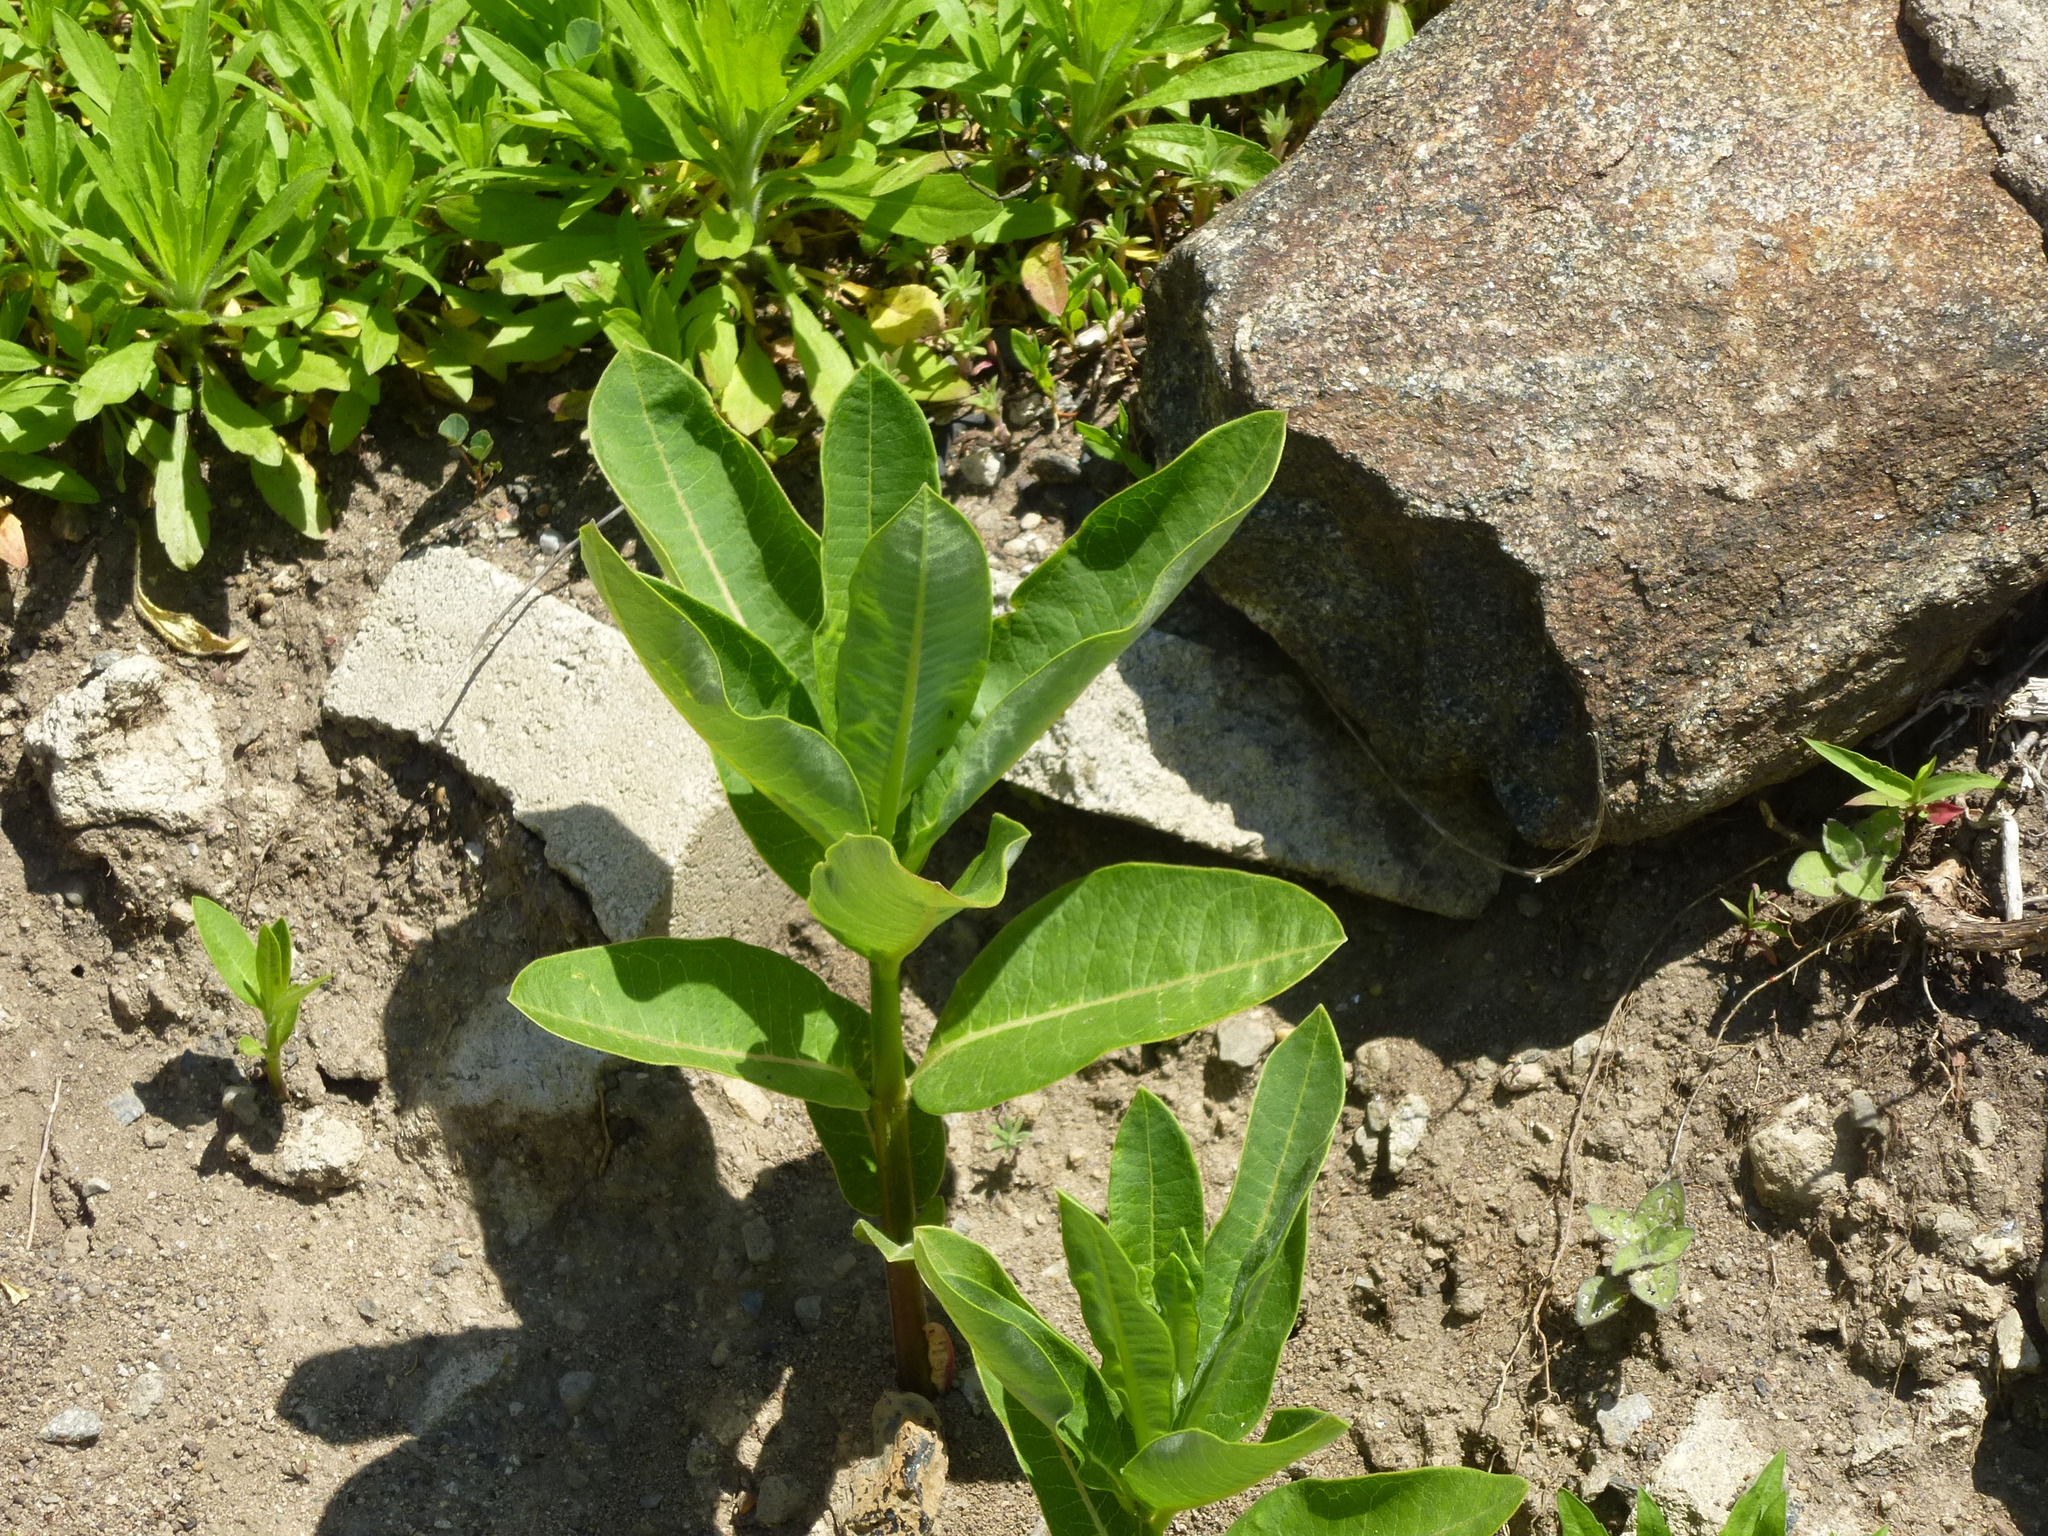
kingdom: Plantae
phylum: Tracheophyta
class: Magnoliopsida
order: Gentianales
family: Apocynaceae
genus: Asclepias
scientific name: Asclepias syriaca
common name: Common milkweed
